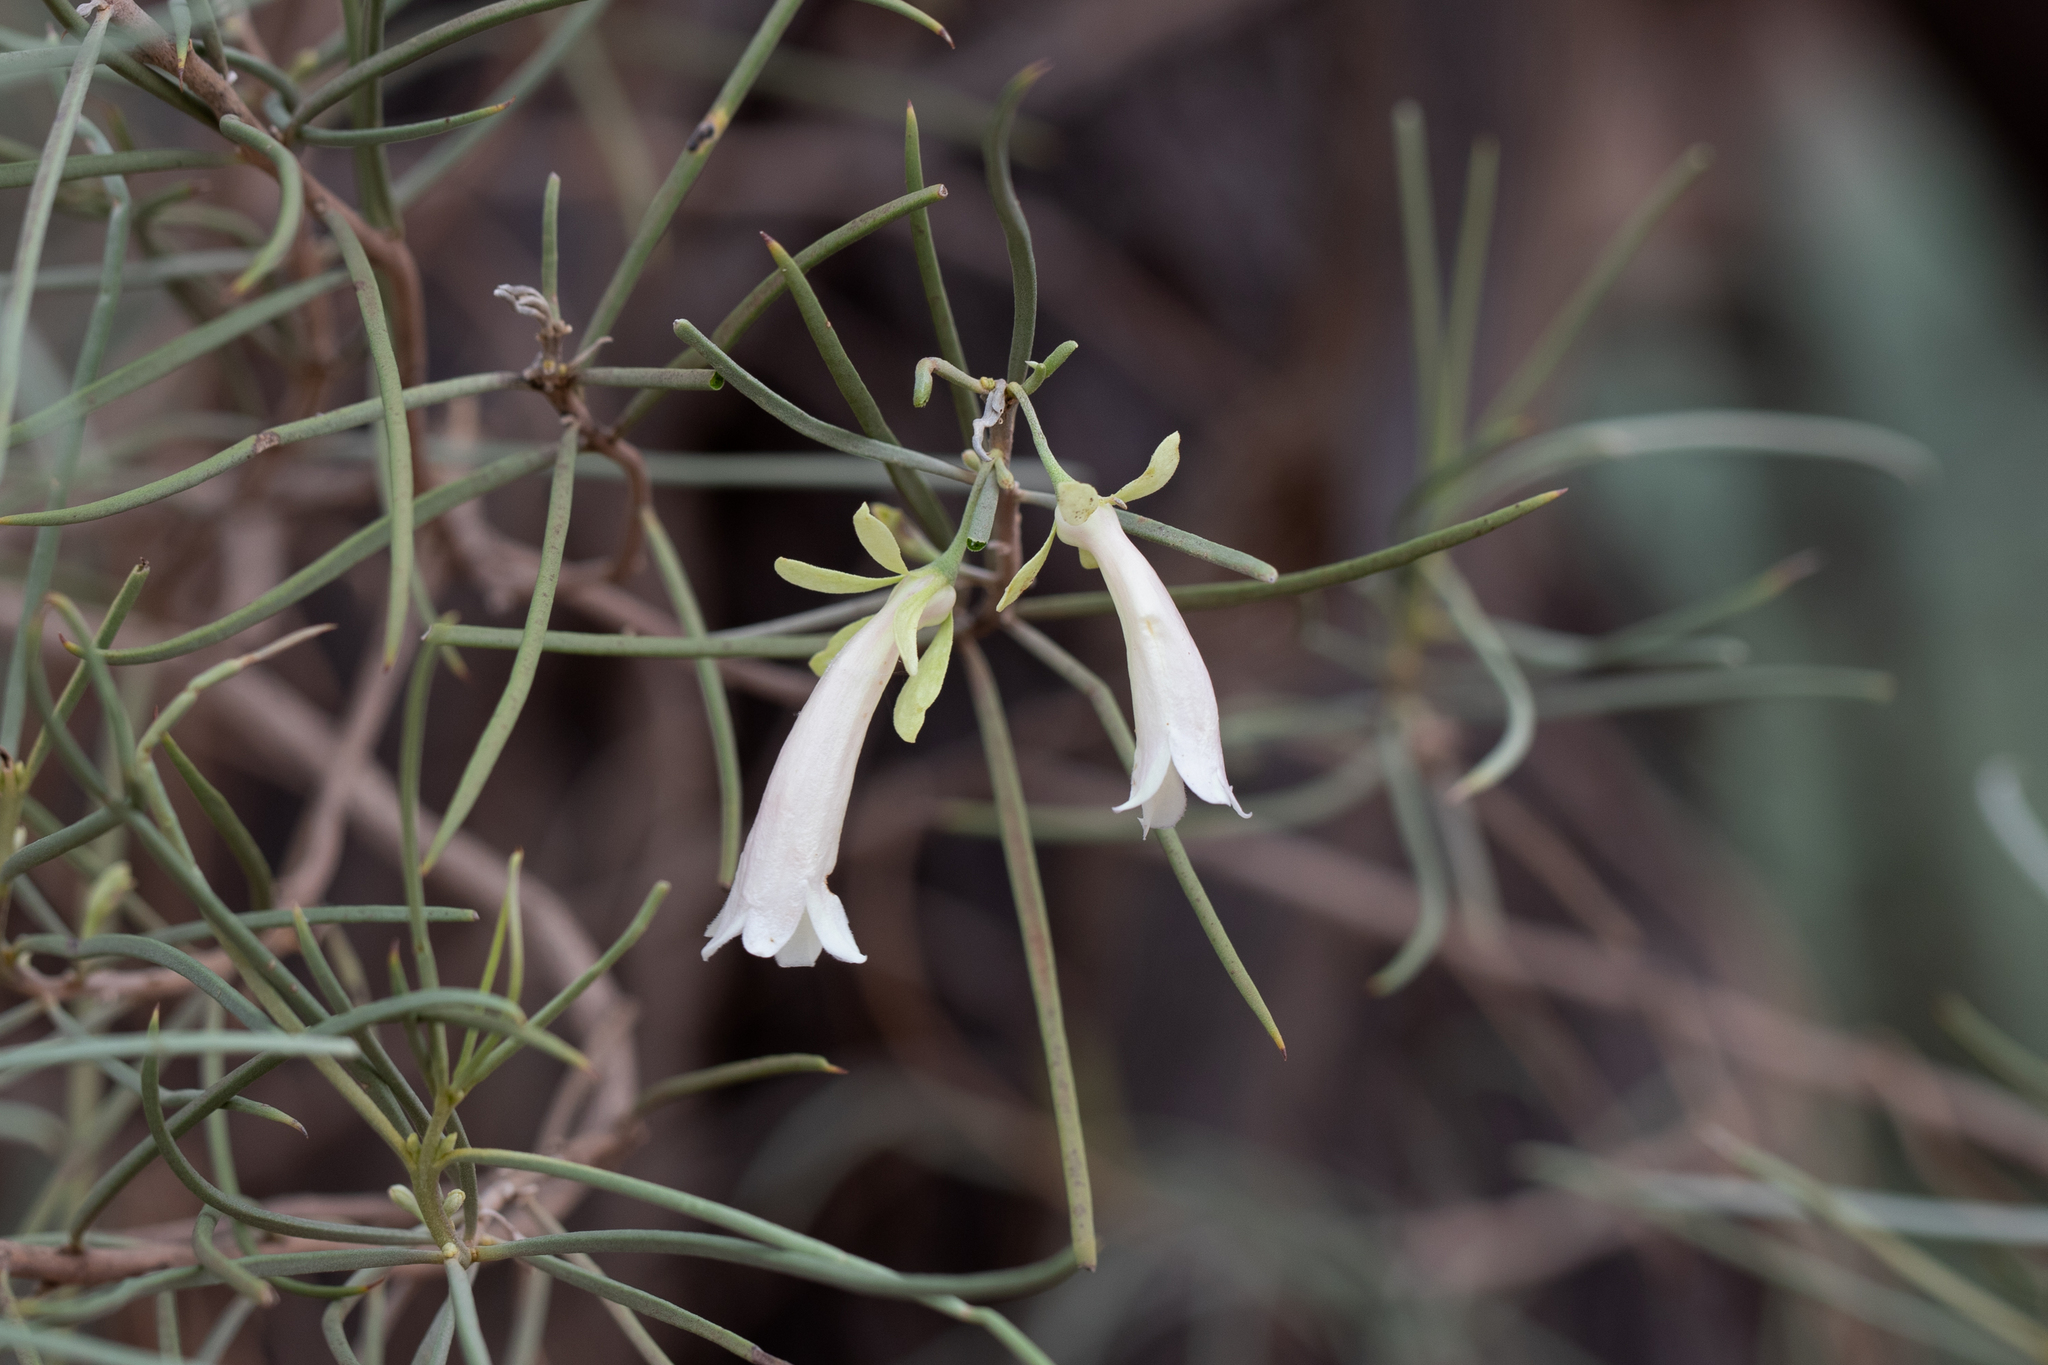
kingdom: Plantae
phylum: Tracheophyta
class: Magnoliopsida
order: Lamiales
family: Scrophulariaceae
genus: Eremophila
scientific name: Eremophila oppositifolia
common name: Mountain-sandalwood
